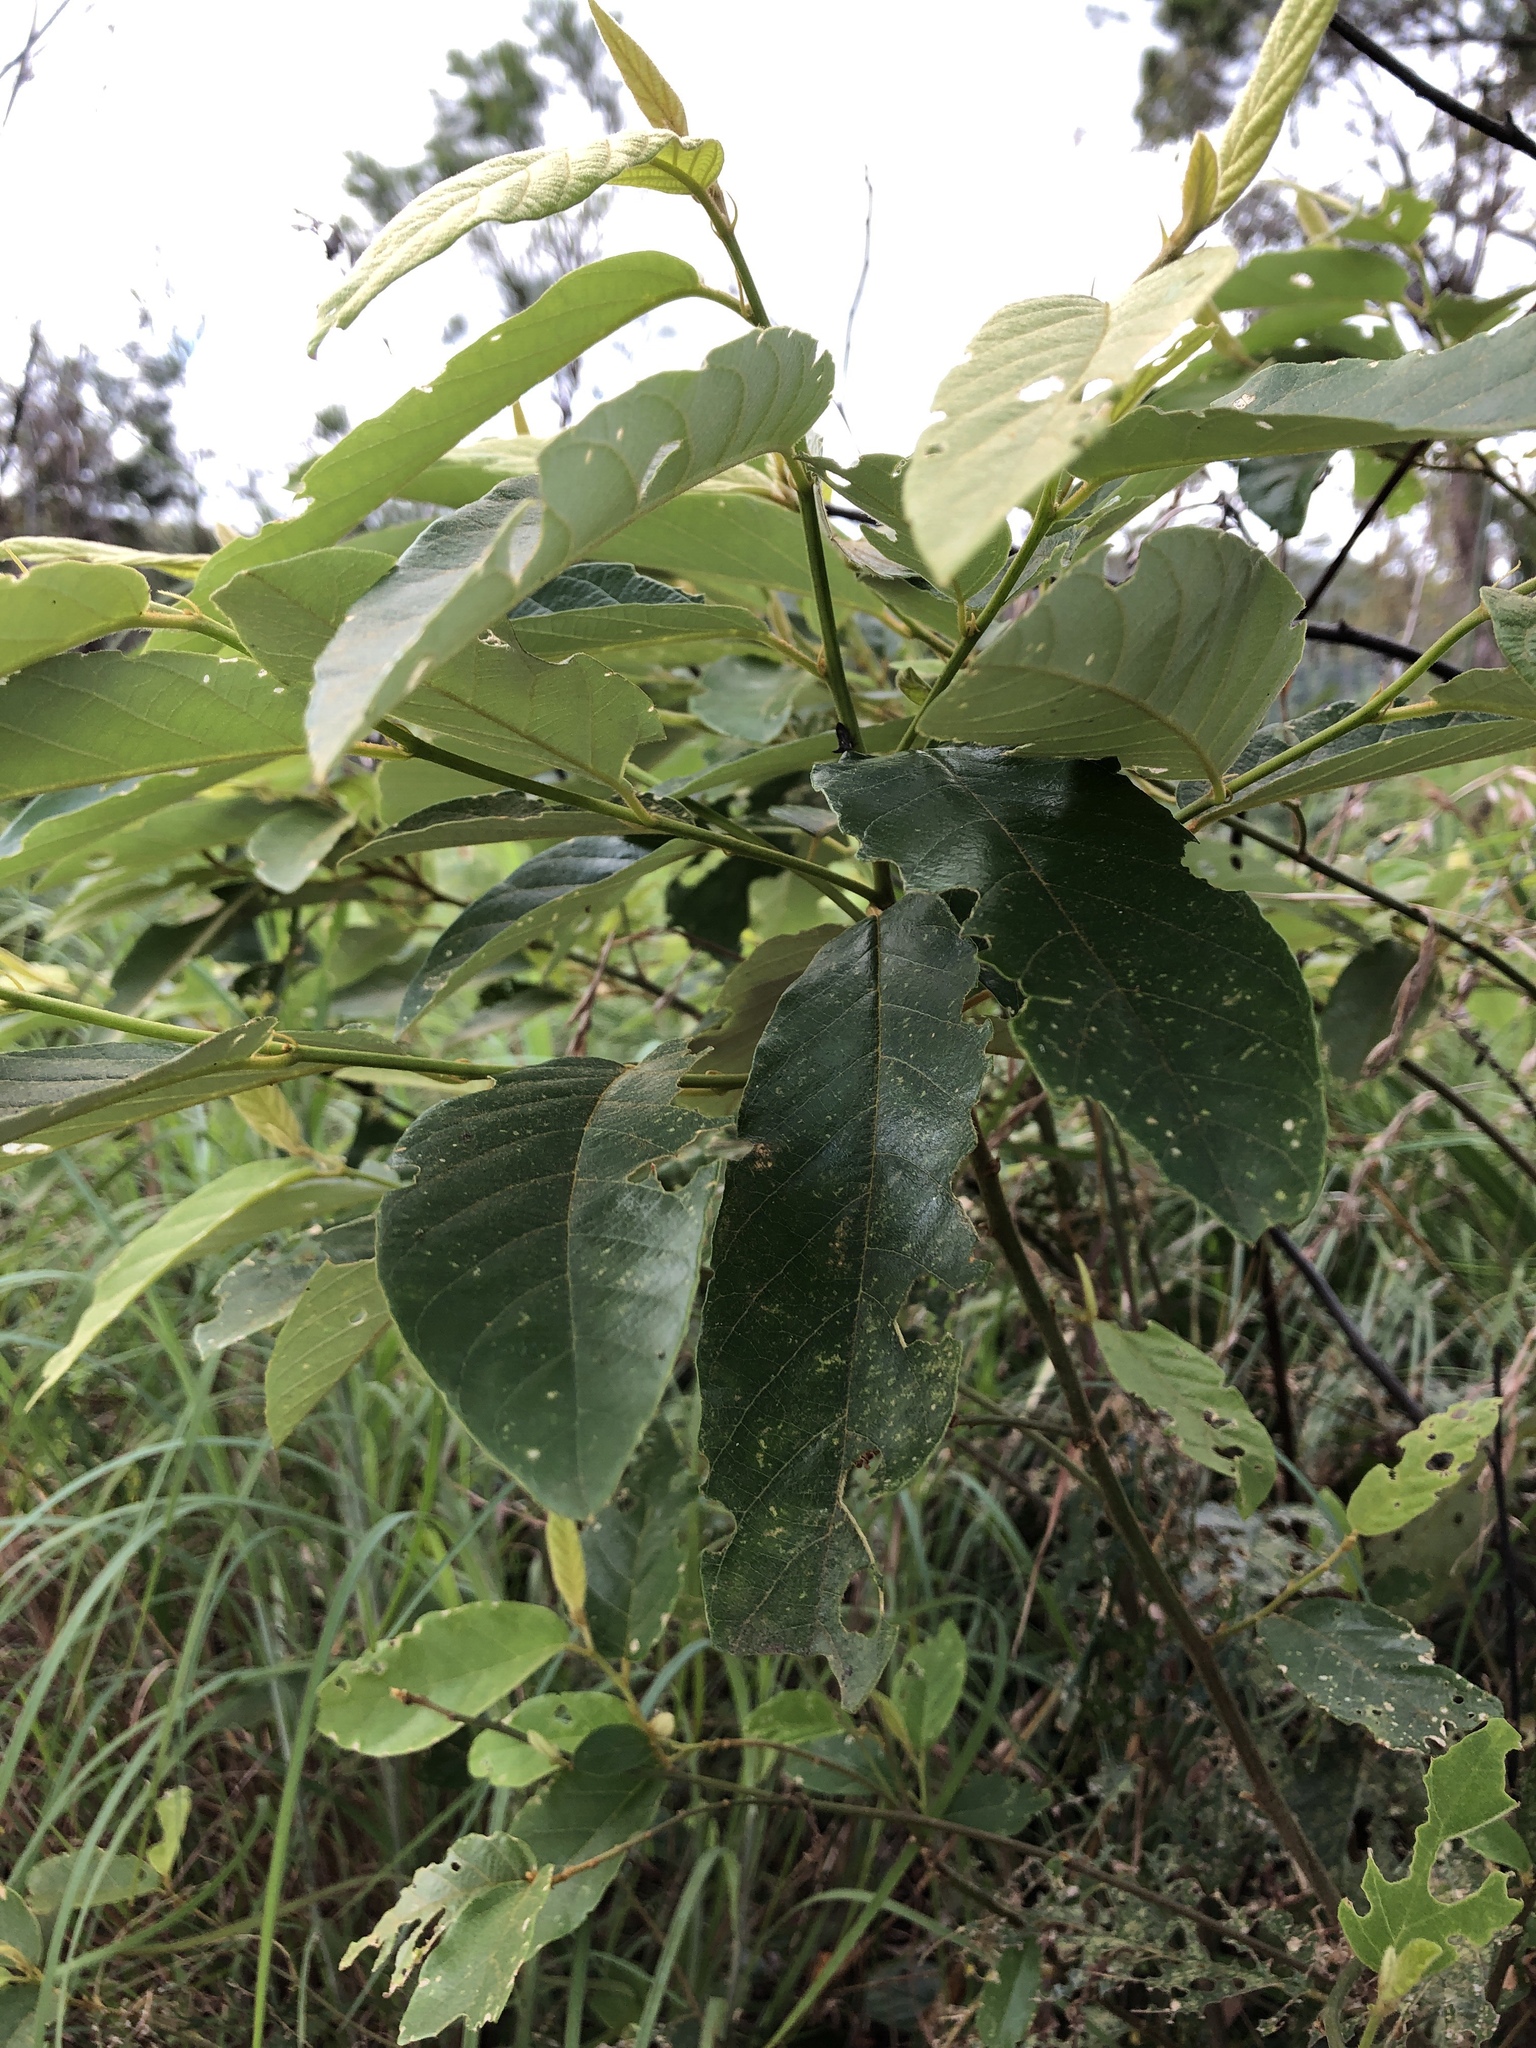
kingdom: Plantae
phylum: Tracheophyta
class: Magnoliopsida
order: Rosales
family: Rhamnaceae
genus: Alphitonia
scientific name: Alphitonia excelsa
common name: Red ash
